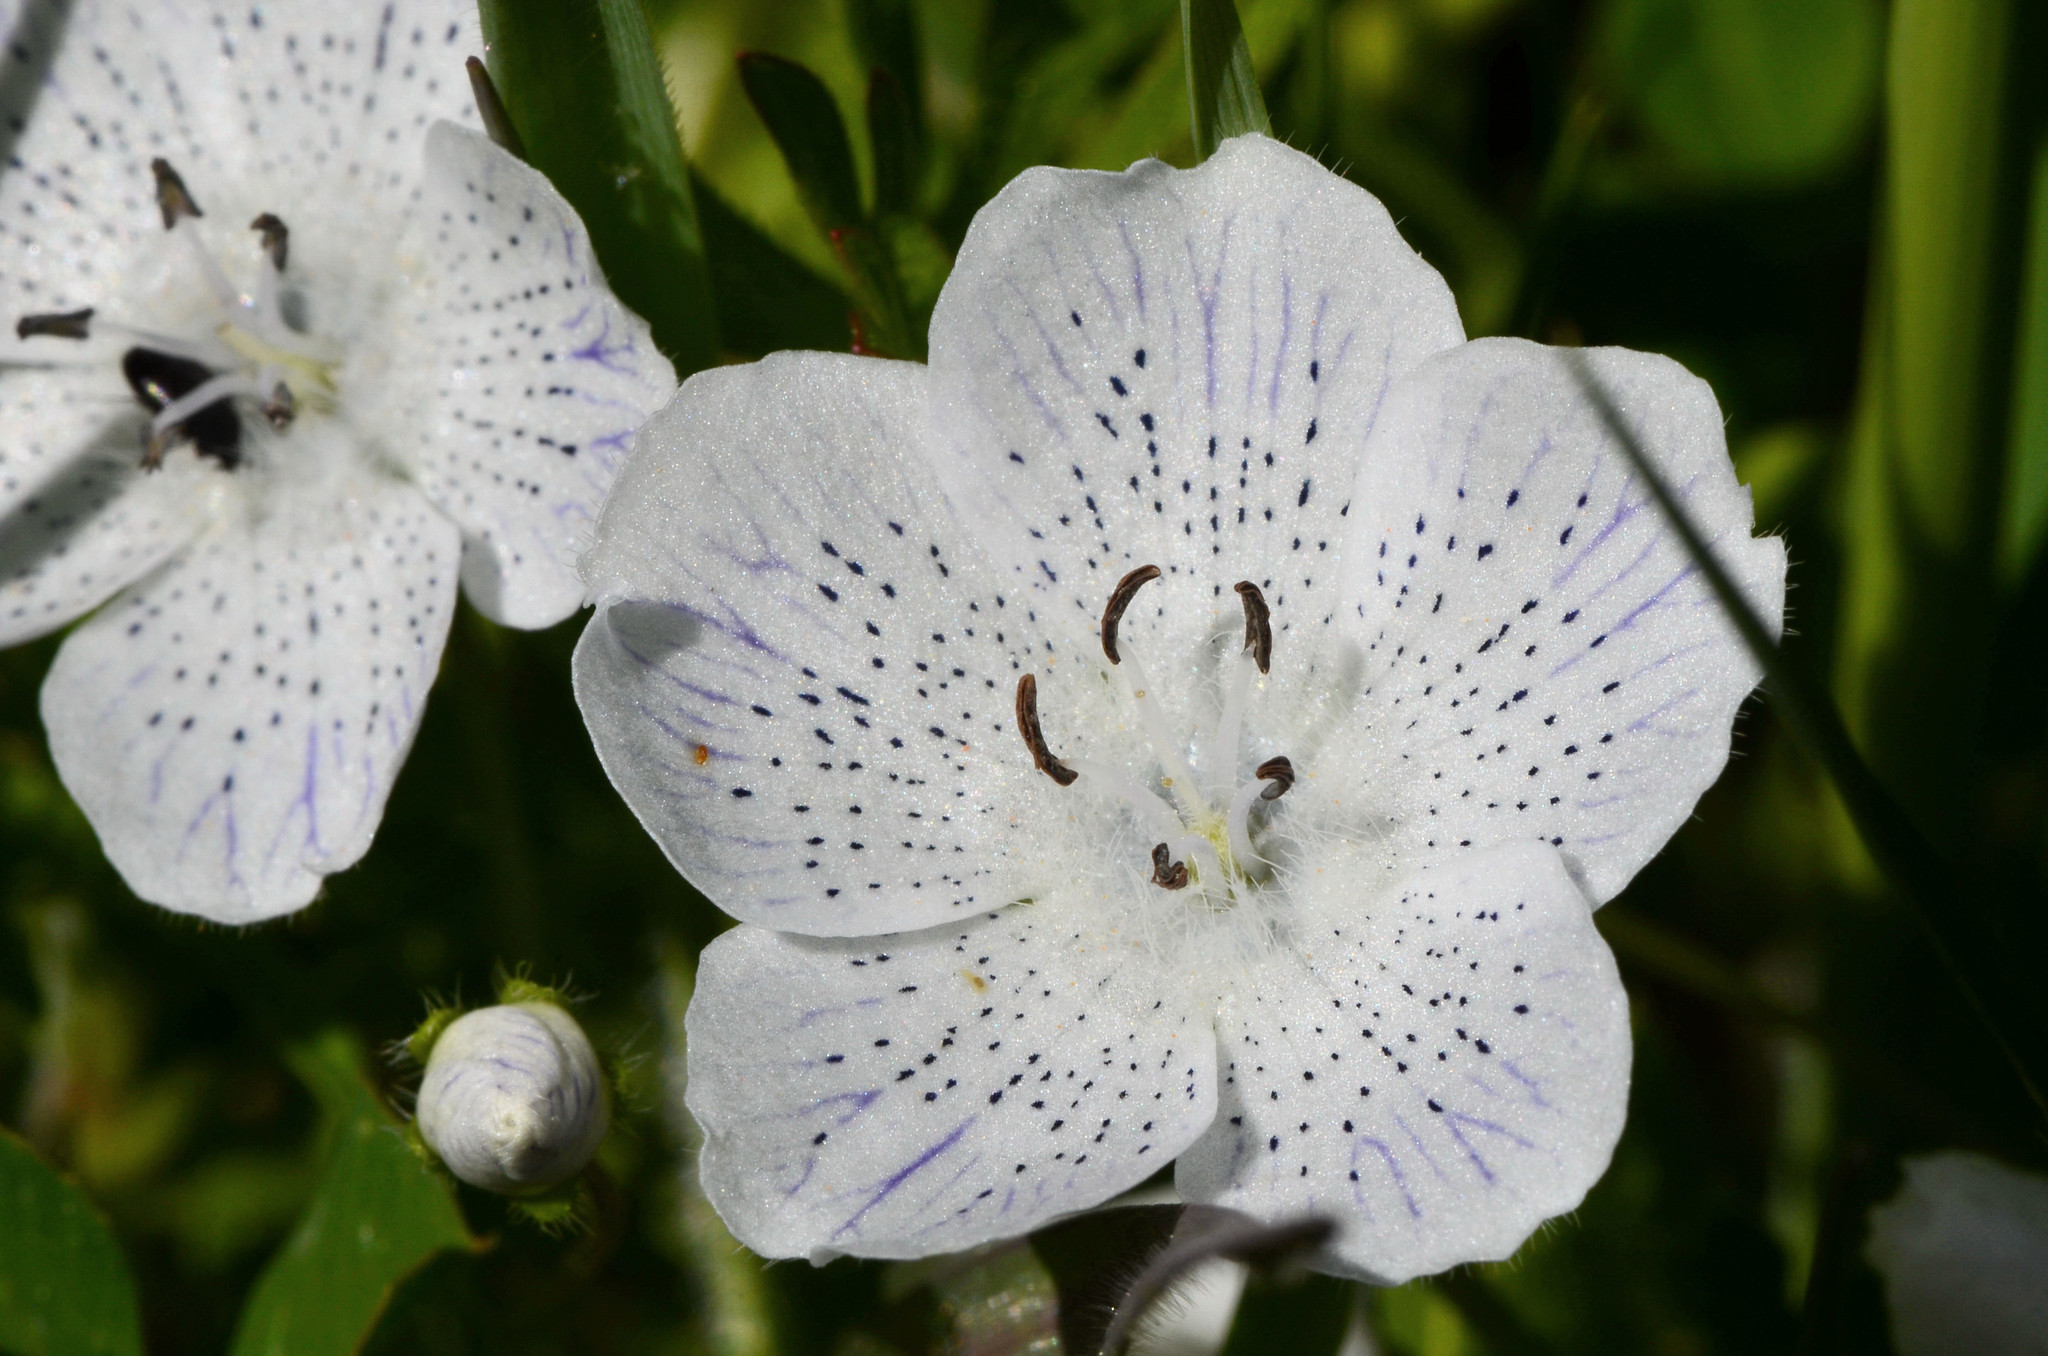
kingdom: Plantae
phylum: Tracheophyta
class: Magnoliopsida
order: Boraginales
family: Hydrophyllaceae
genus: Nemophila
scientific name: Nemophila menziesii
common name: Baby's-blue-eyes
